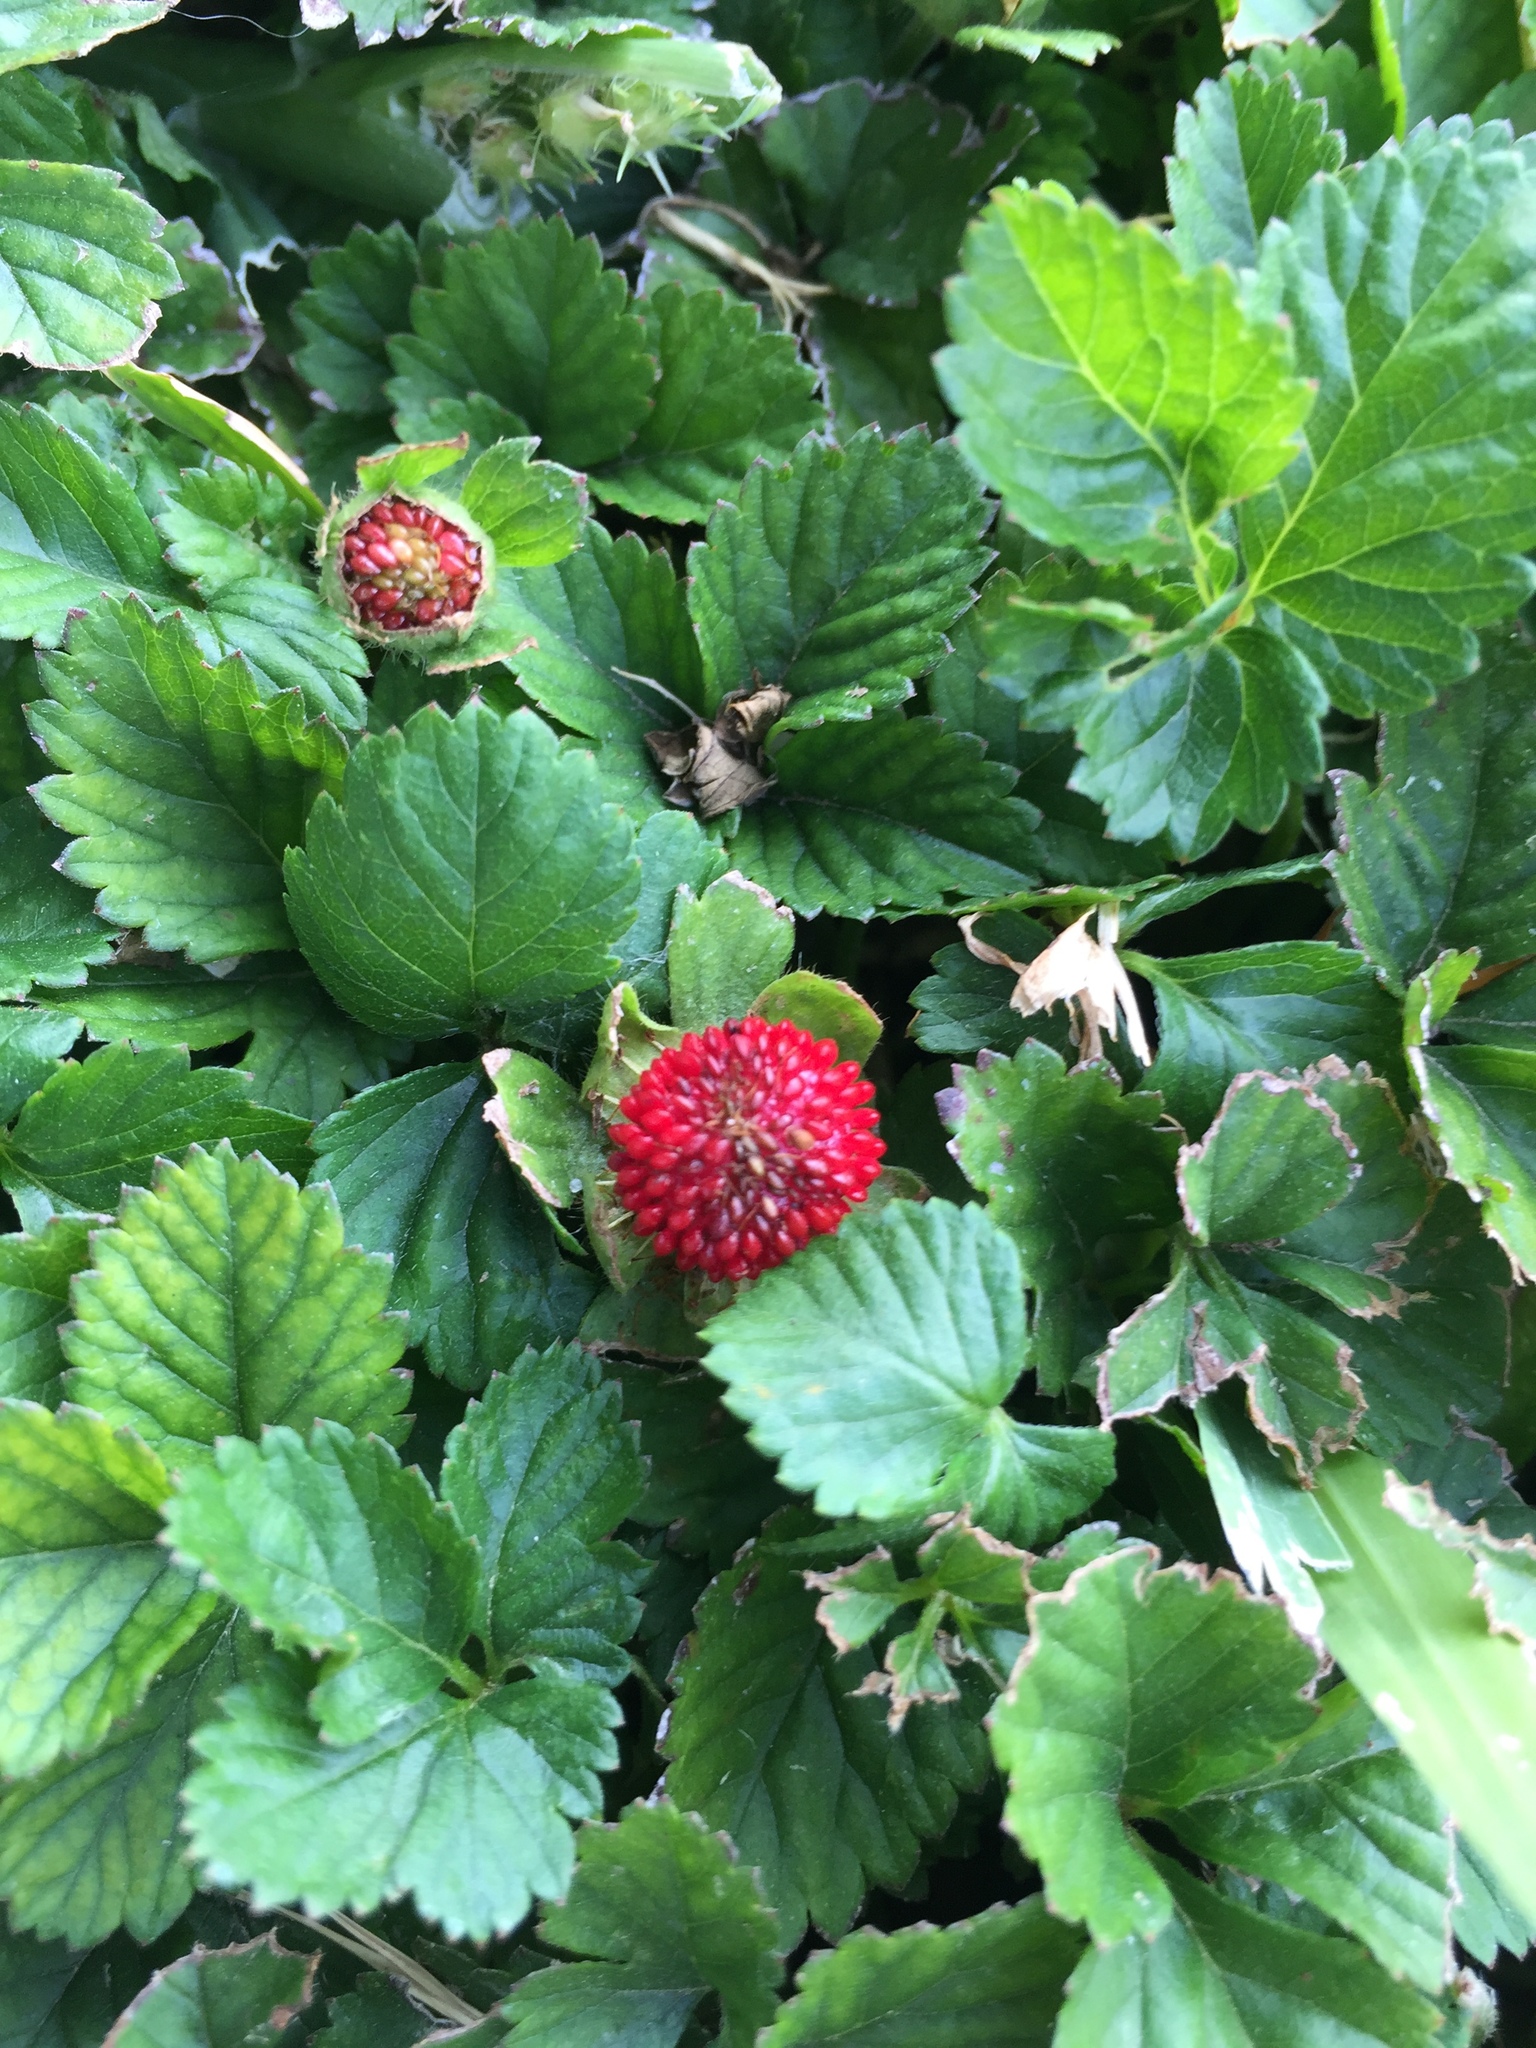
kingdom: Plantae
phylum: Tracheophyta
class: Magnoliopsida
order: Rosales
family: Rosaceae
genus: Potentilla
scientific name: Potentilla indica
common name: Yellow-flowered strawberry
